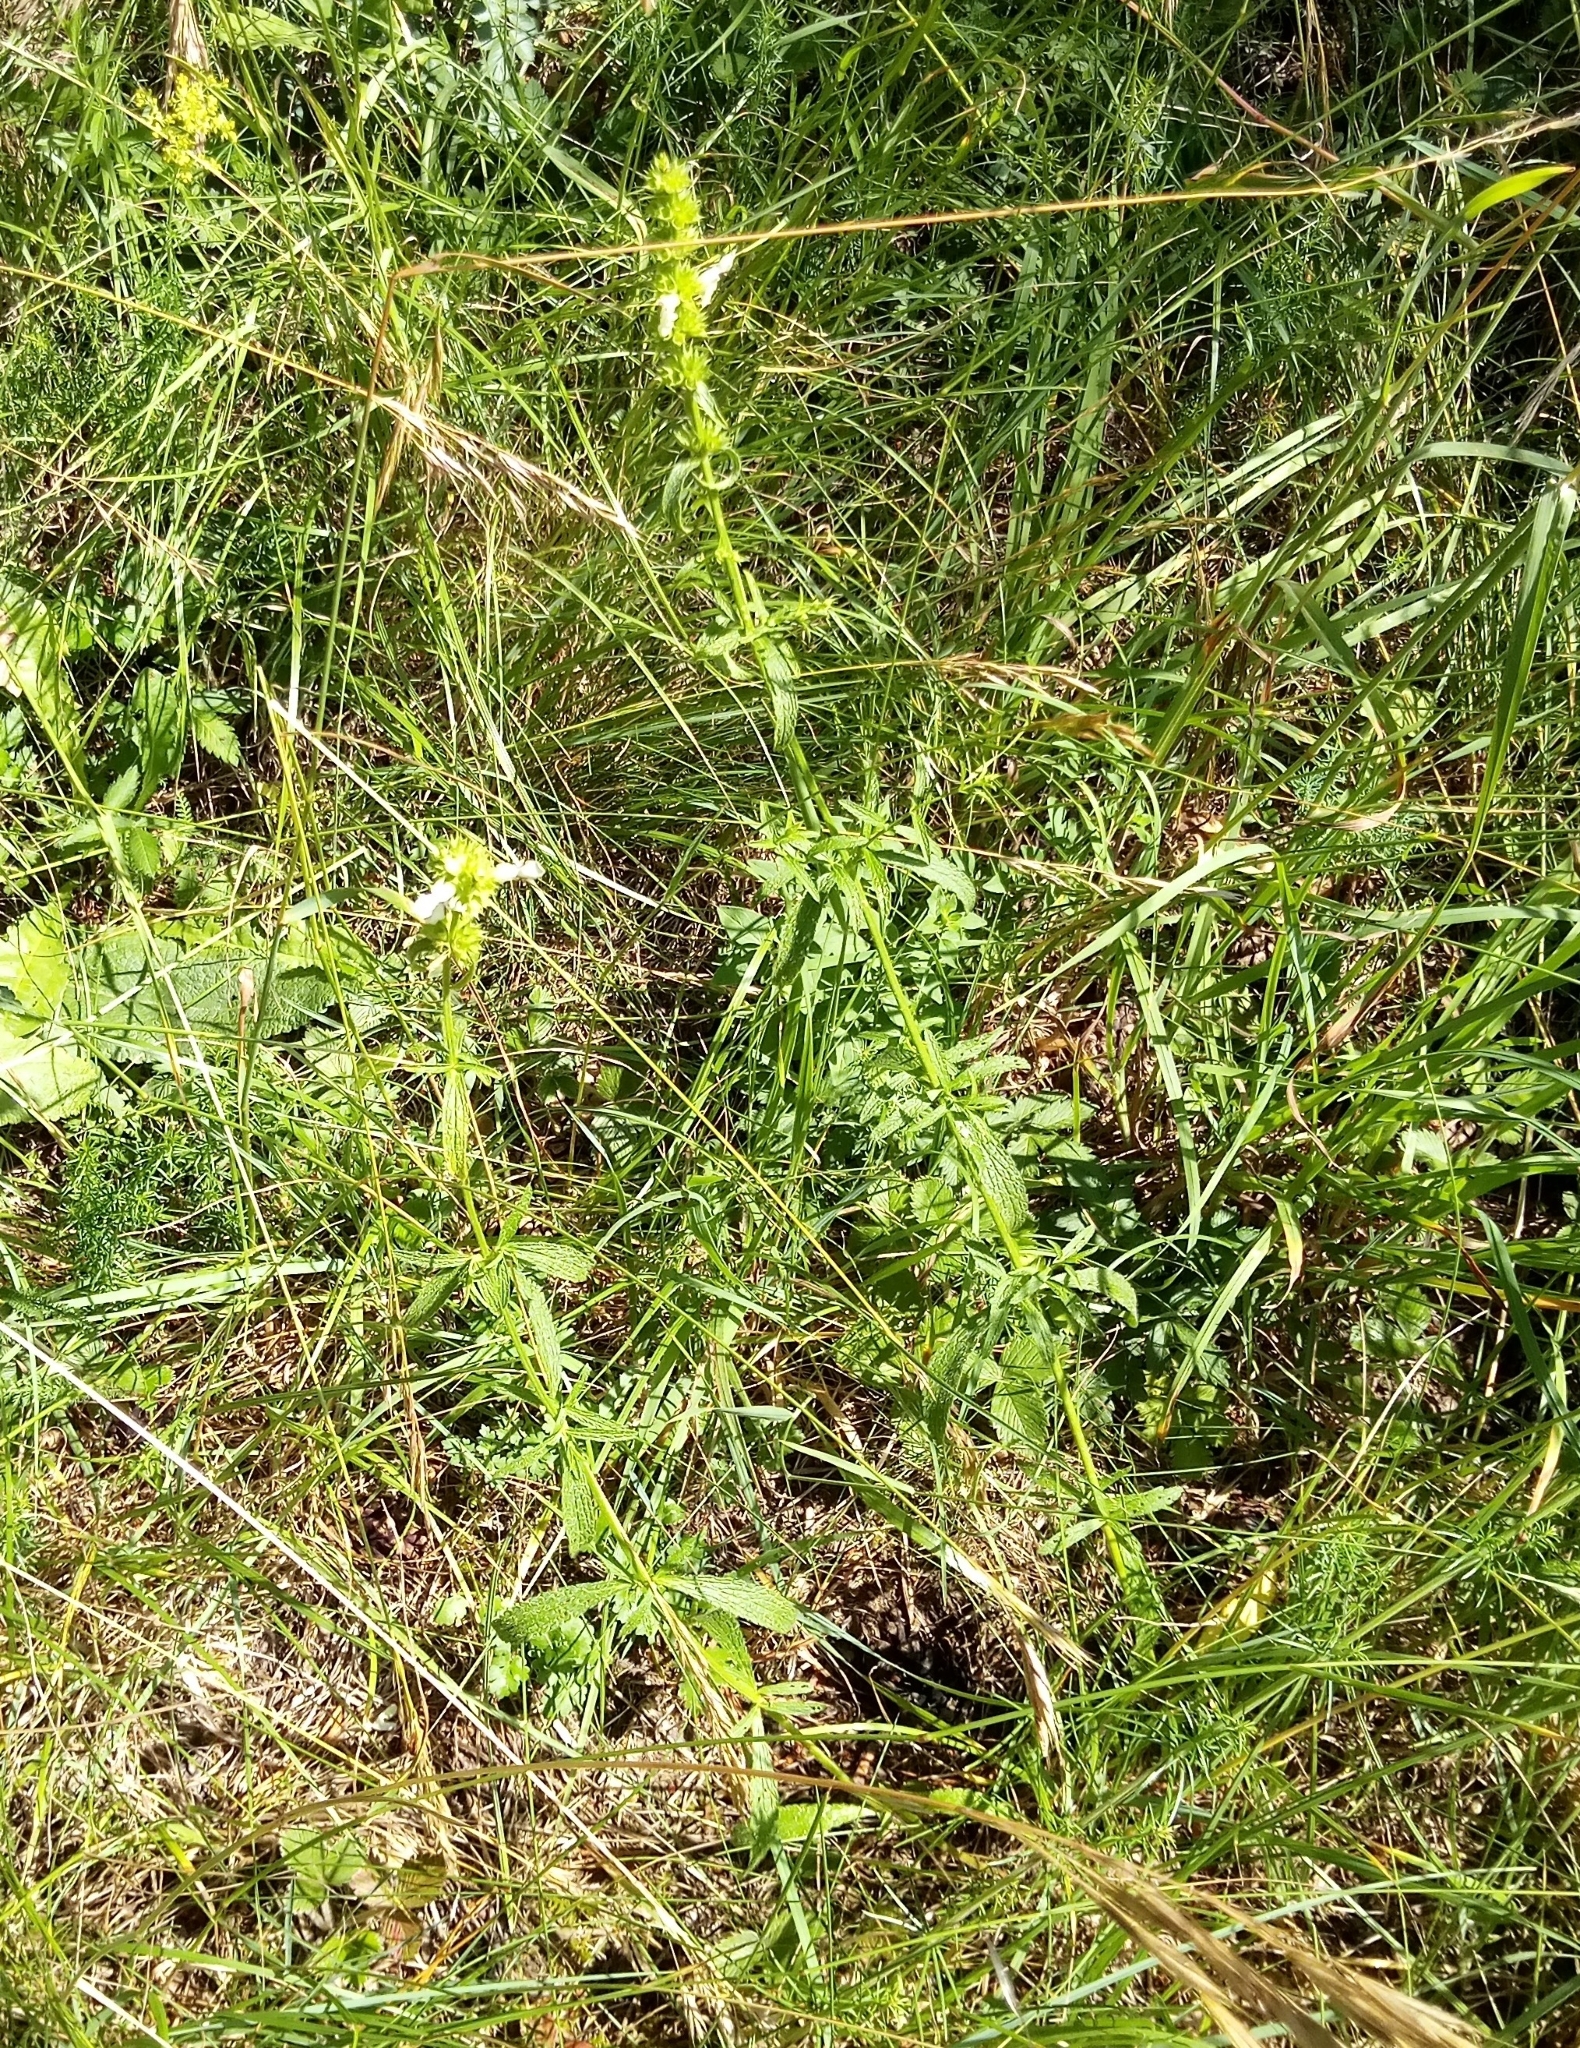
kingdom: Plantae
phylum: Tracheophyta
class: Magnoliopsida
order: Lamiales
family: Lamiaceae
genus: Stachys
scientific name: Stachys recta
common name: Perennial yellow-woundwort
